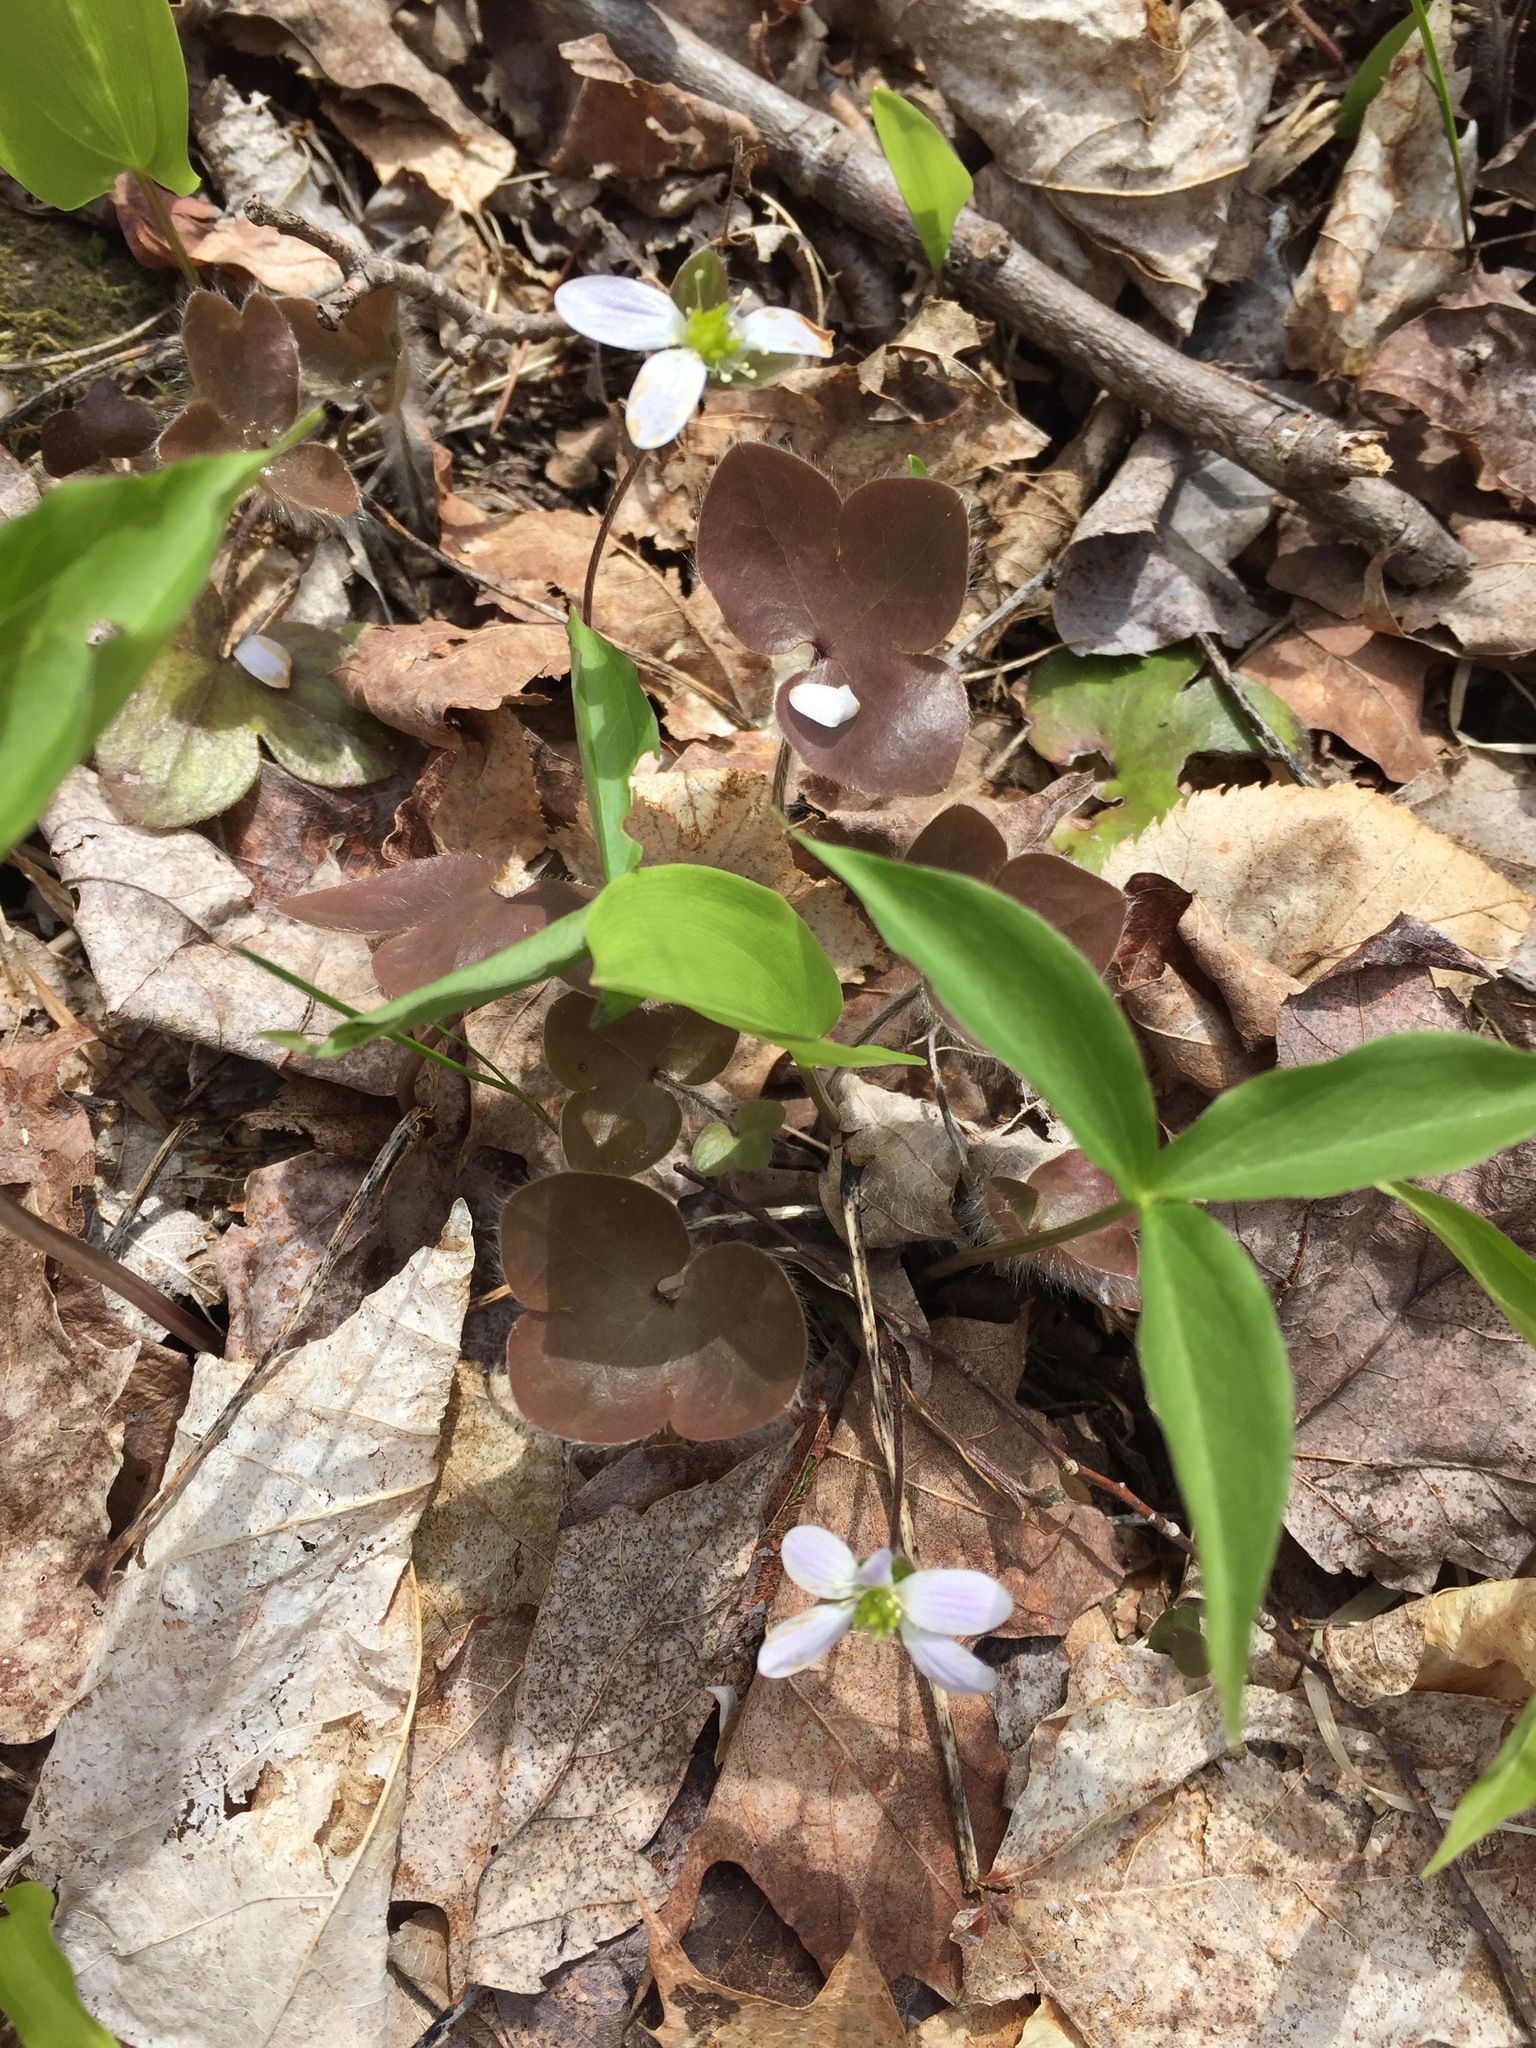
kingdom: Plantae
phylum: Tracheophyta
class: Magnoliopsida
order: Ranunculales
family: Ranunculaceae
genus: Hepatica
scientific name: Hepatica americana
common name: American hepatica
